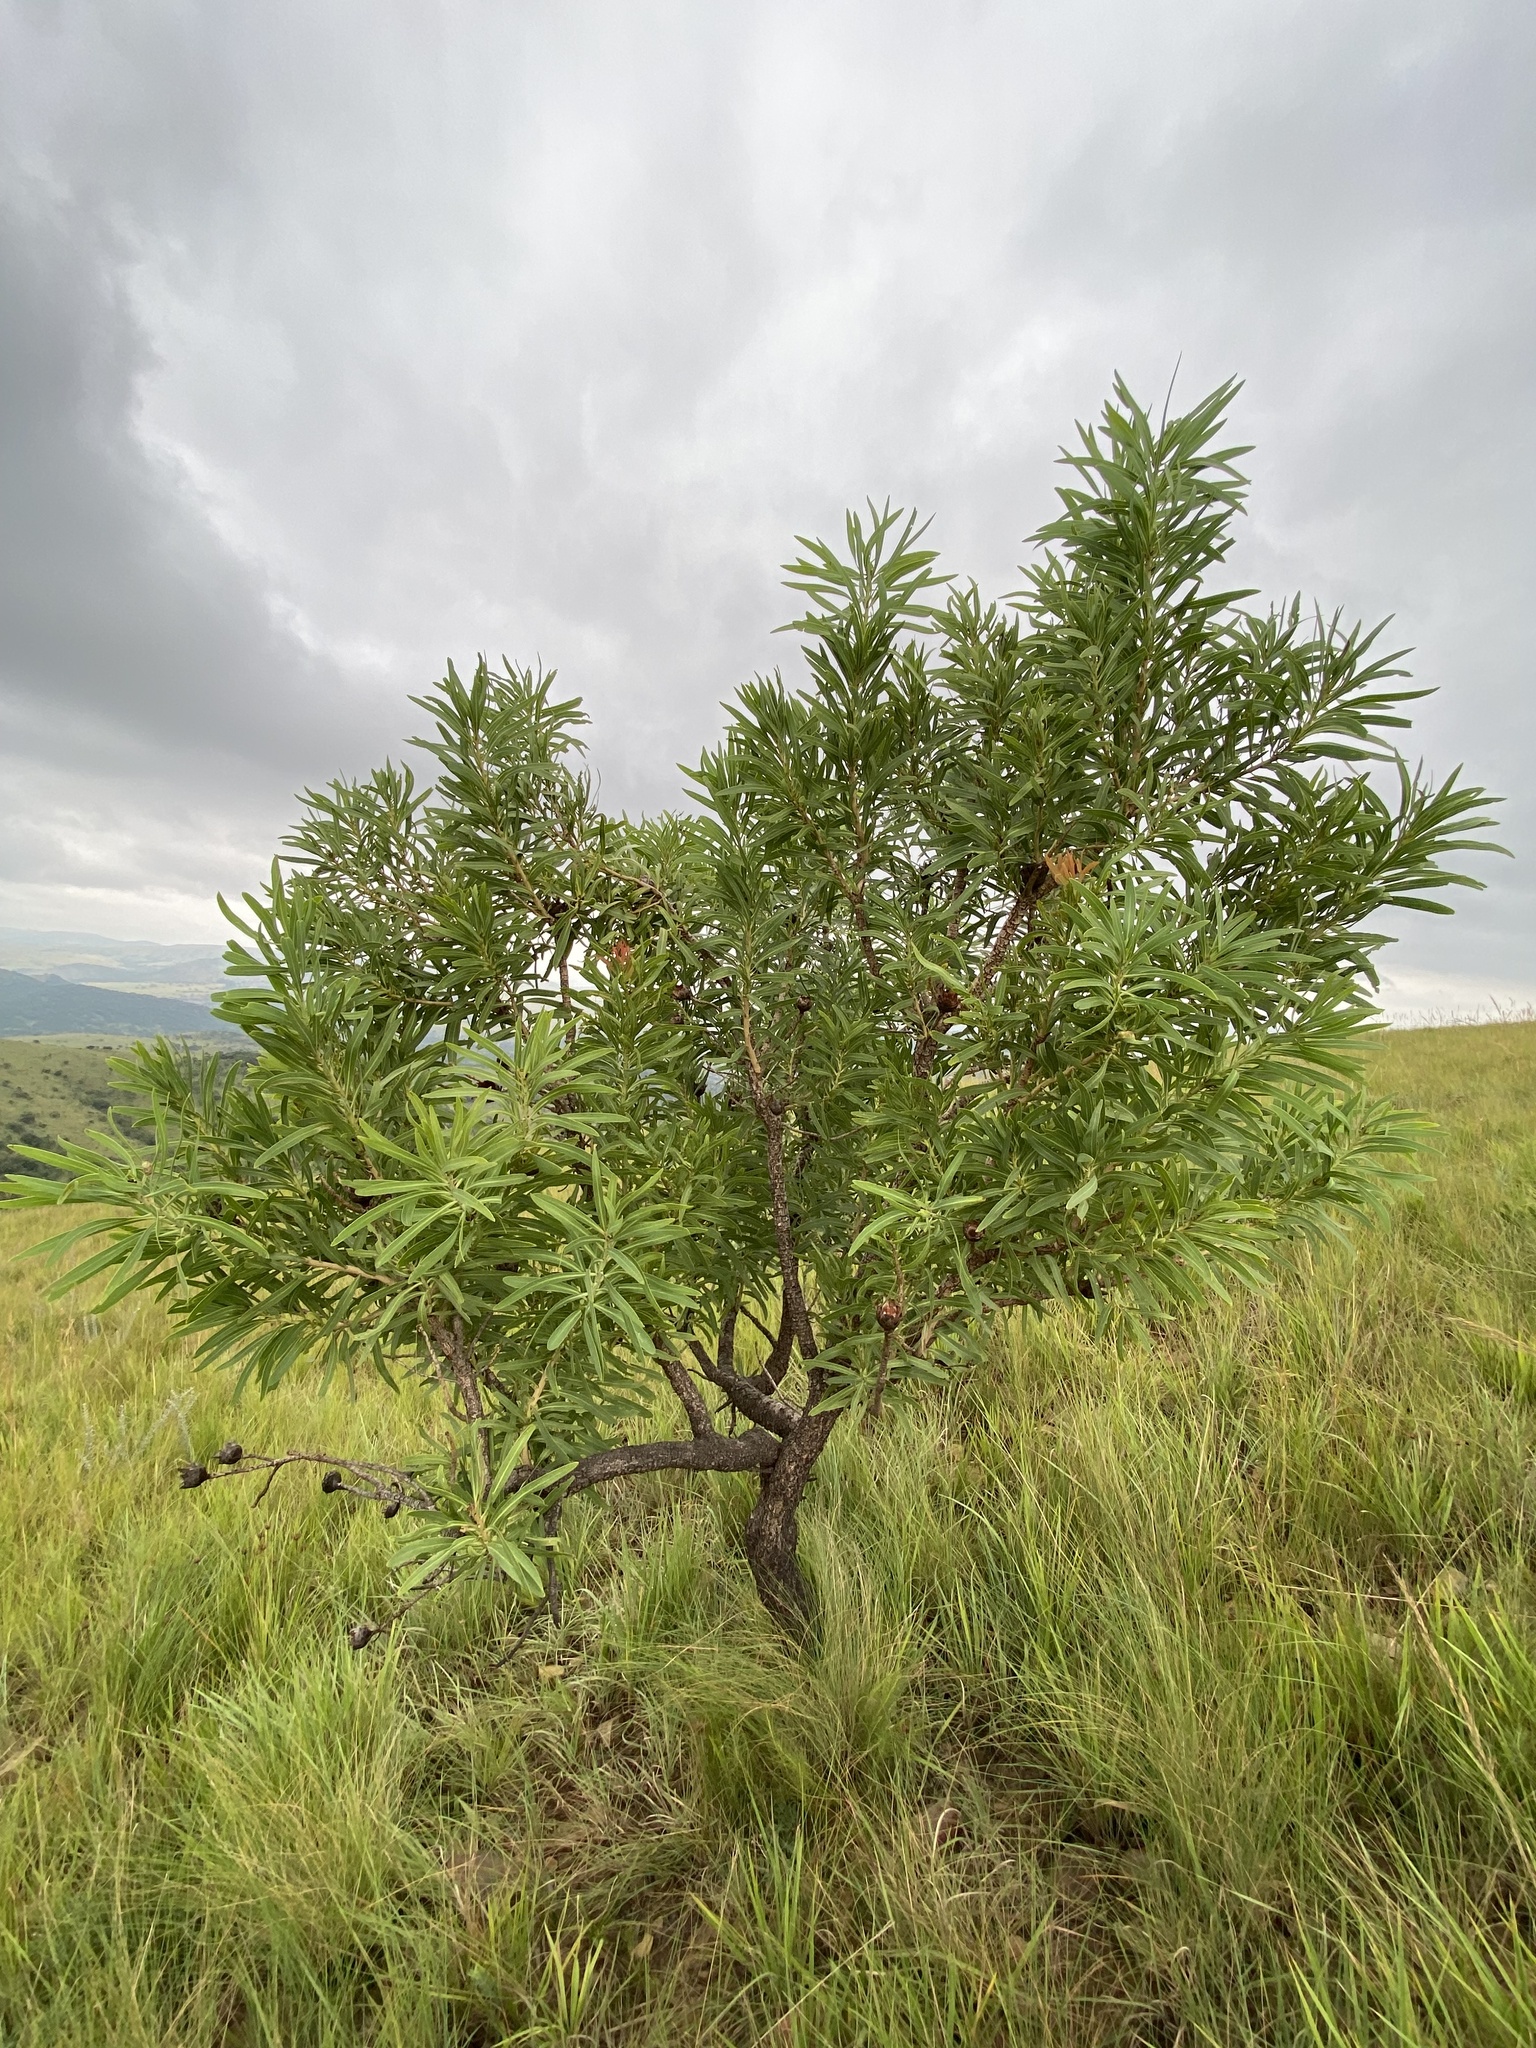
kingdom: Plantae
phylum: Tracheophyta
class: Magnoliopsida
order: Proteales
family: Proteaceae
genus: Protea
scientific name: Protea caffra
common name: Common sugarbush
